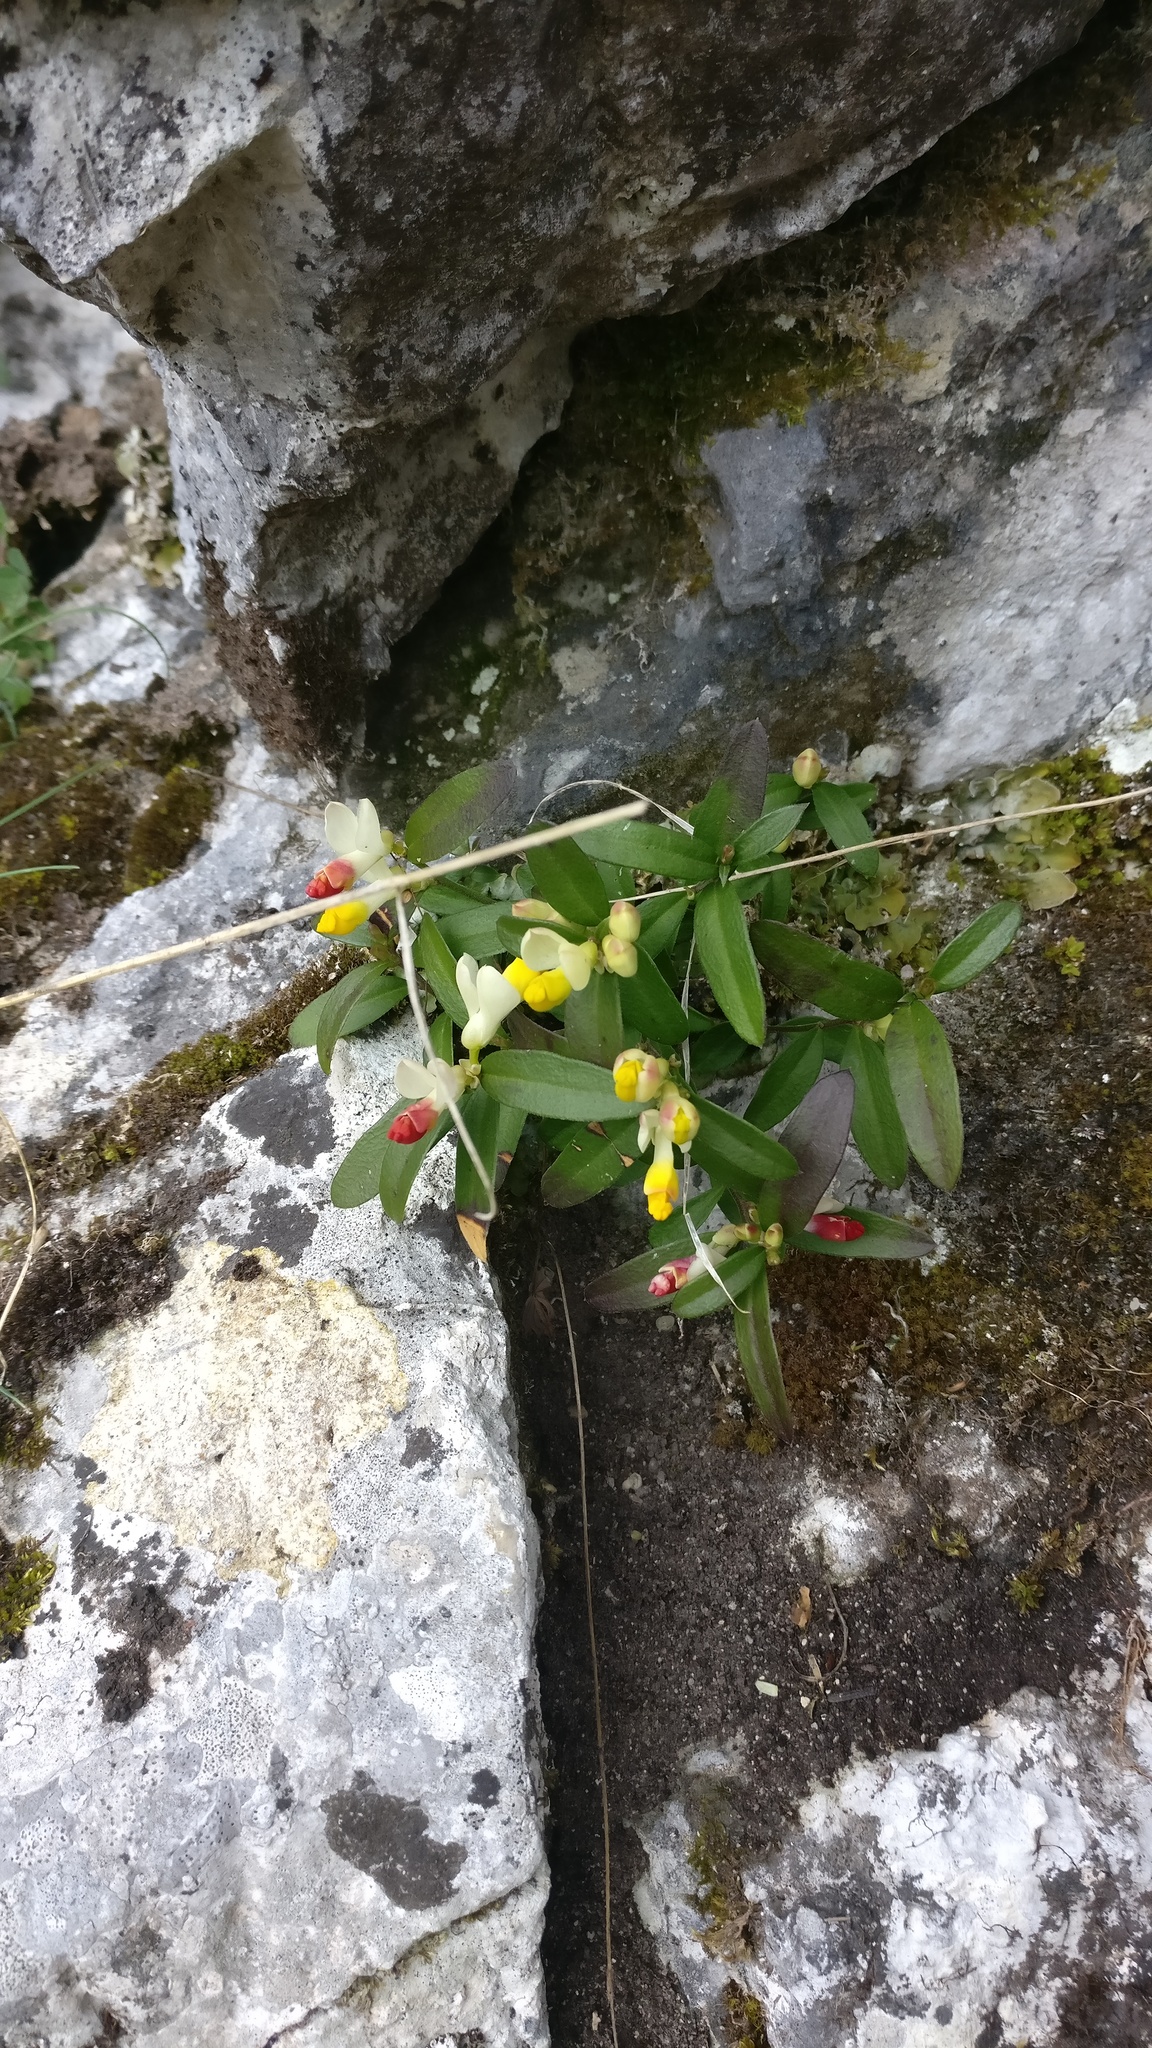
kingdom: Plantae
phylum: Tracheophyta
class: Magnoliopsida
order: Fabales
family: Polygalaceae
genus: Polygaloides
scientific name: Polygaloides chamaebuxus
